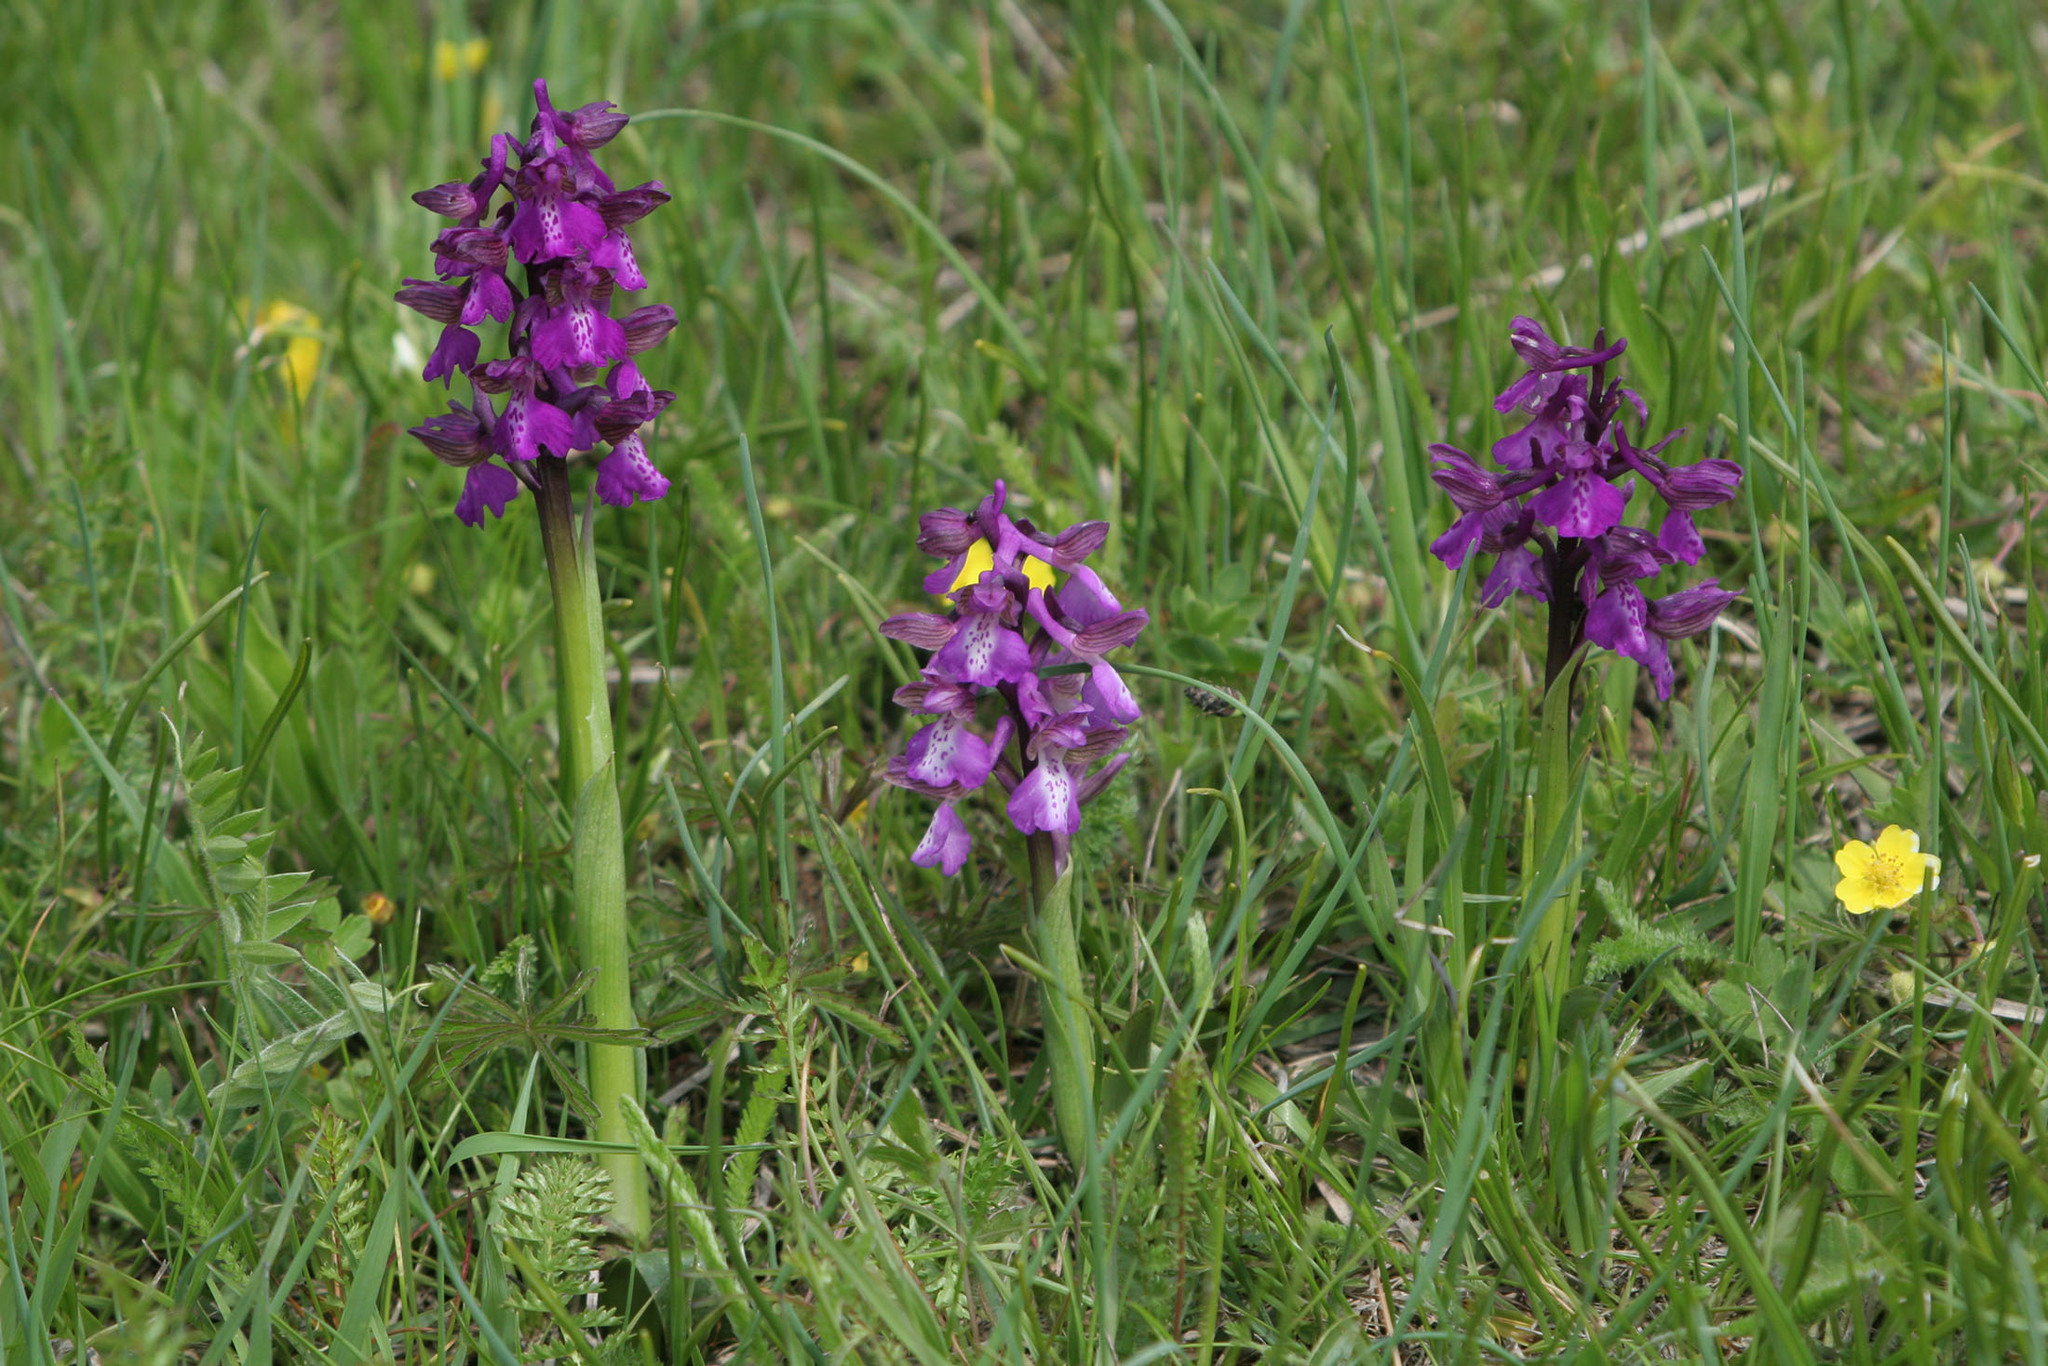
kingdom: Plantae
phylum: Tracheophyta
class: Liliopsida
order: Asparagales
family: Orchidaceae
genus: Anacamptis
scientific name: Anacamptis morio
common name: Green-winged orchid
